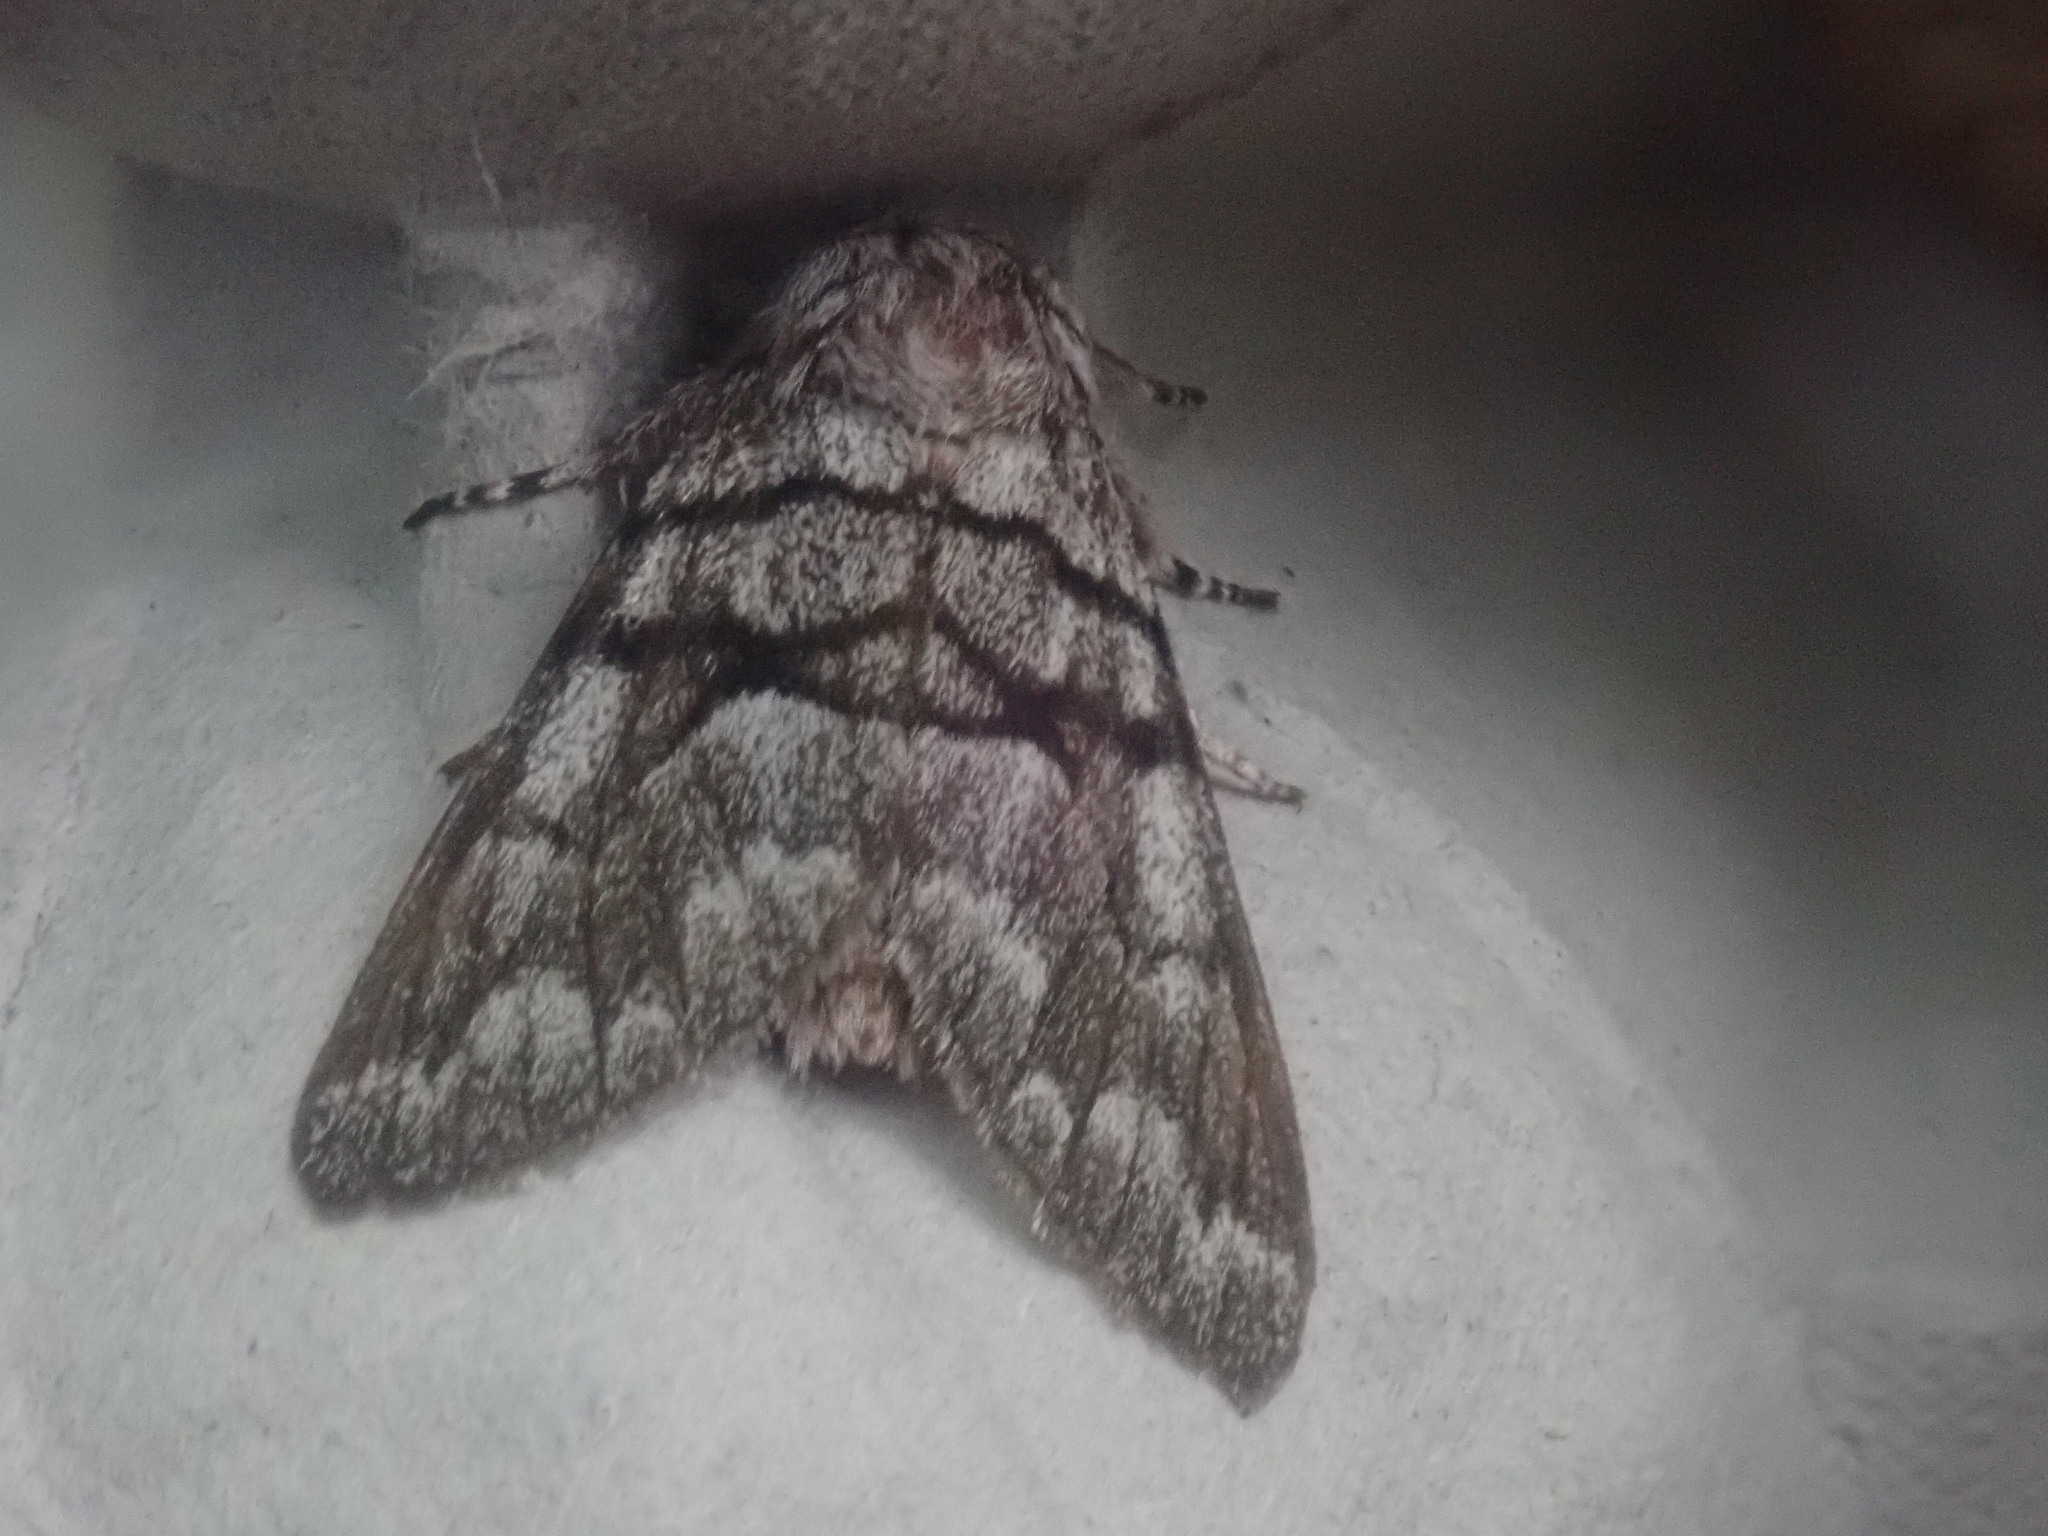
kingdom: Animalia
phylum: Arthropoda
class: Insecta
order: Lepidoptera
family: Noctuidae
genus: Panthea
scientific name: Panthea furcilla
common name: Eastern panthea moth
